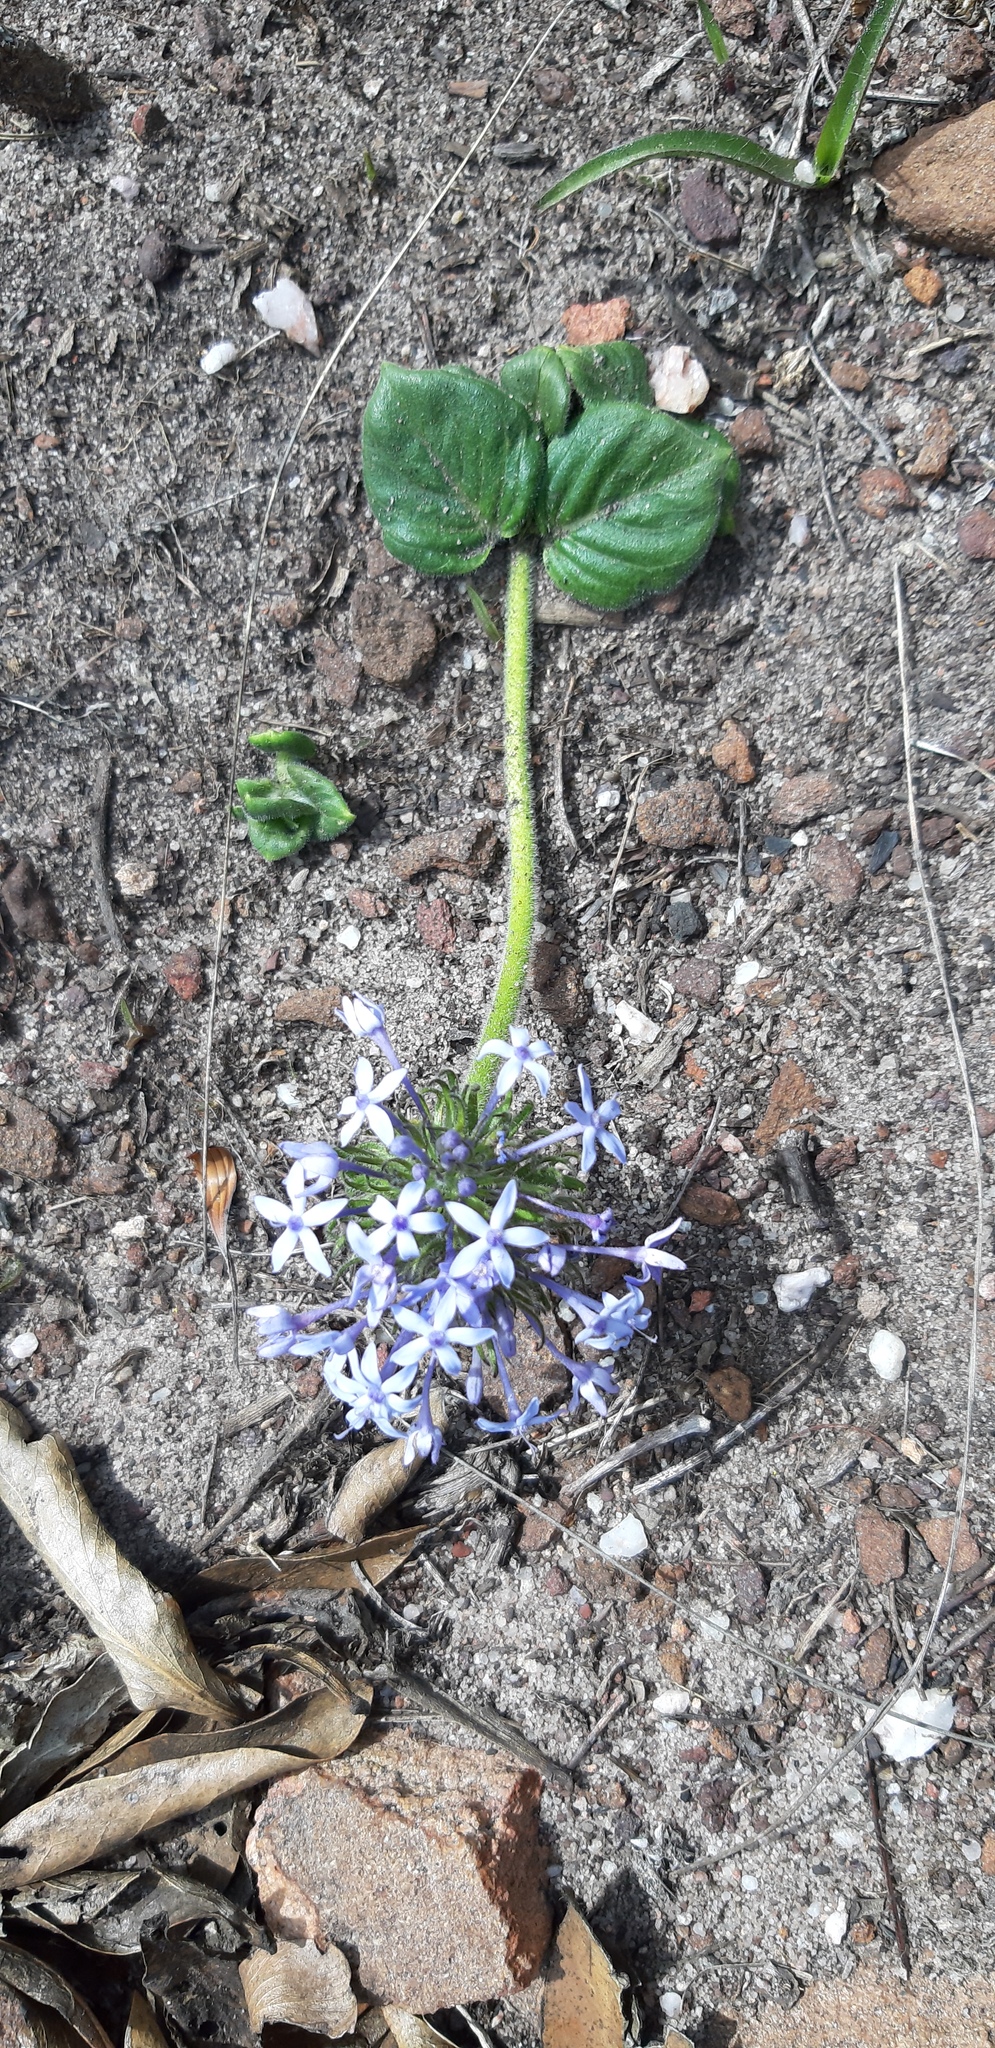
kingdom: Plantae
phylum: Tracheophyta
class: Magnoliopsida
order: Gentianales
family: Rubiaceae
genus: Pentanisia
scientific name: Pentanisia prunelloides
